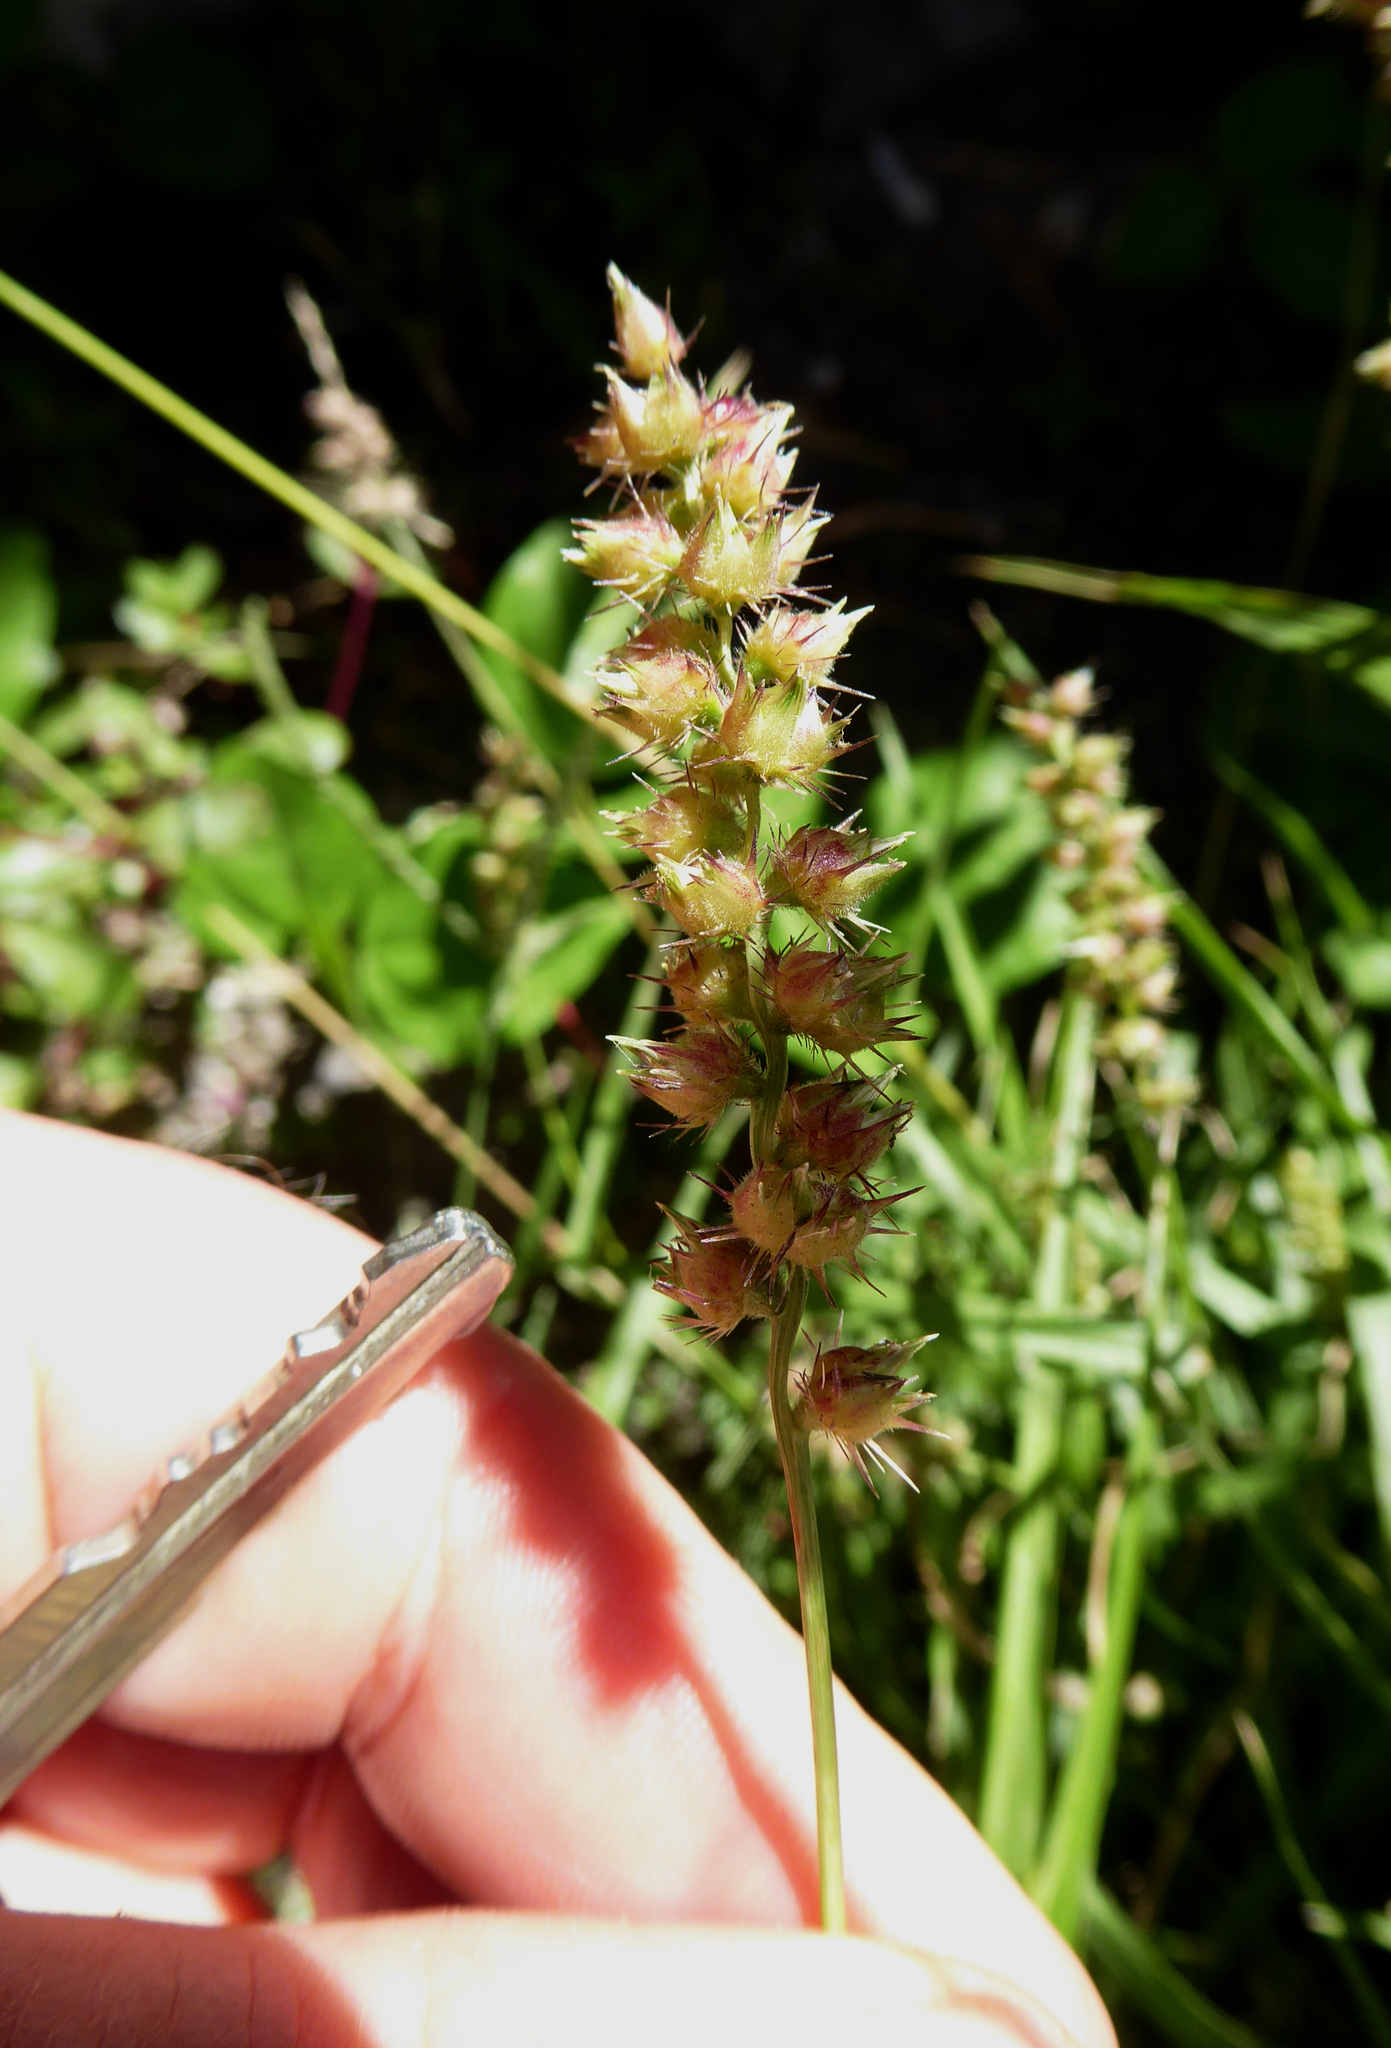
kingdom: Plantae
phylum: Tracheophyta
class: Liliopsida
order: Poales
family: Poaceae
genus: Cenchrus
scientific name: Cenchrus echinatus
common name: Southern sandbur
